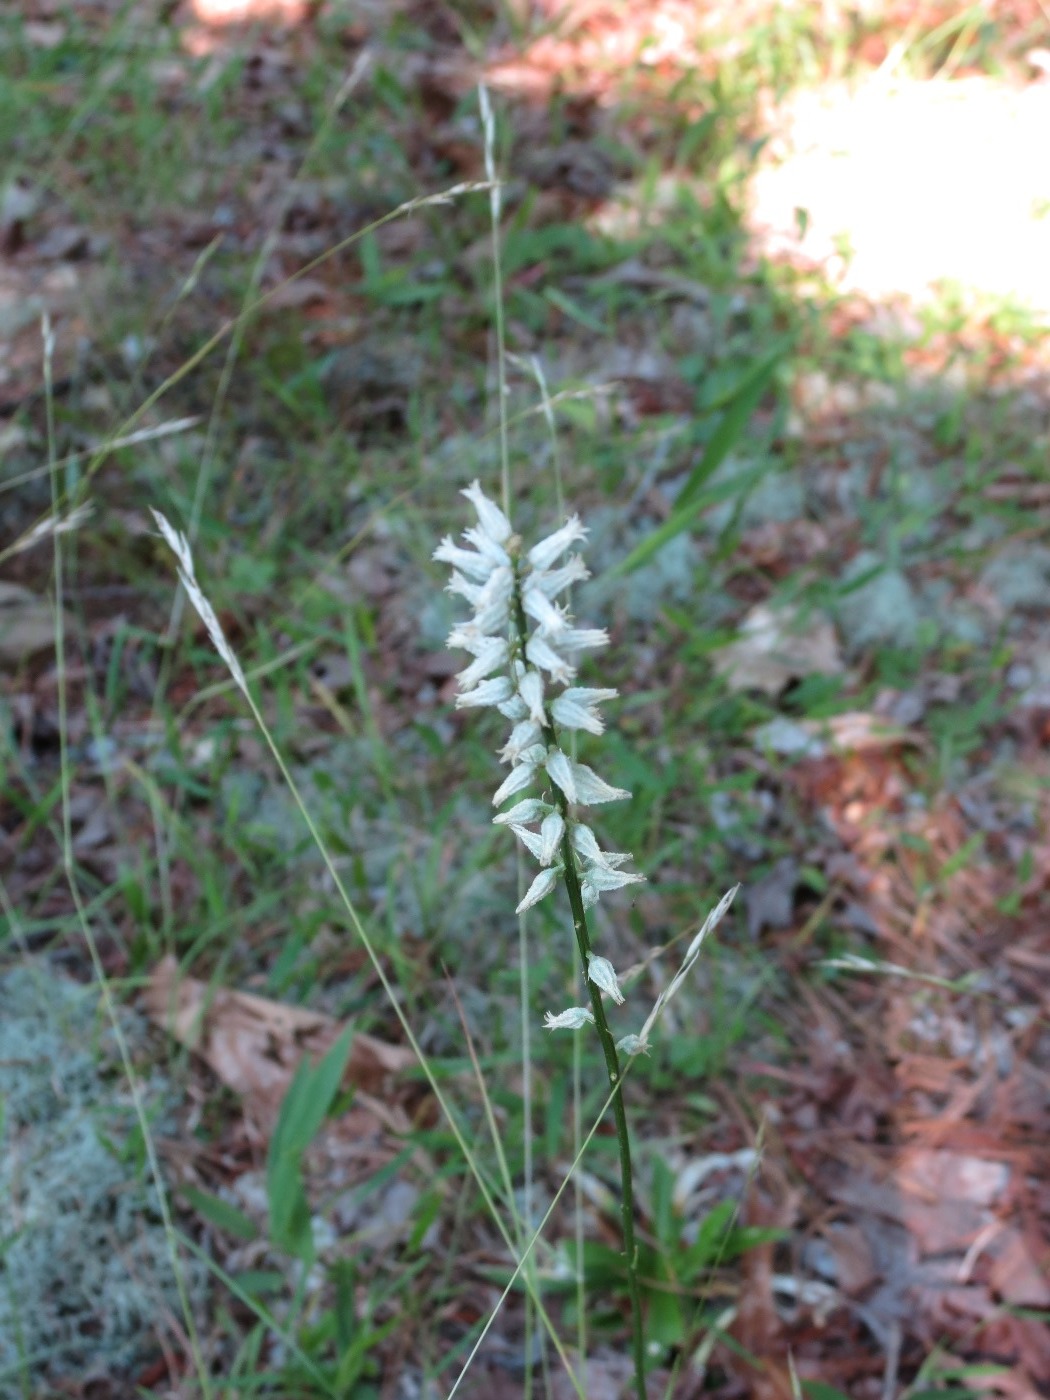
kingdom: Plantae
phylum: Tracheophyta
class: Liliopsida
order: Dioscoreales
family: Nartheciaceae
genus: Aletris
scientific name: Aletris farinosa
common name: Colicroot
